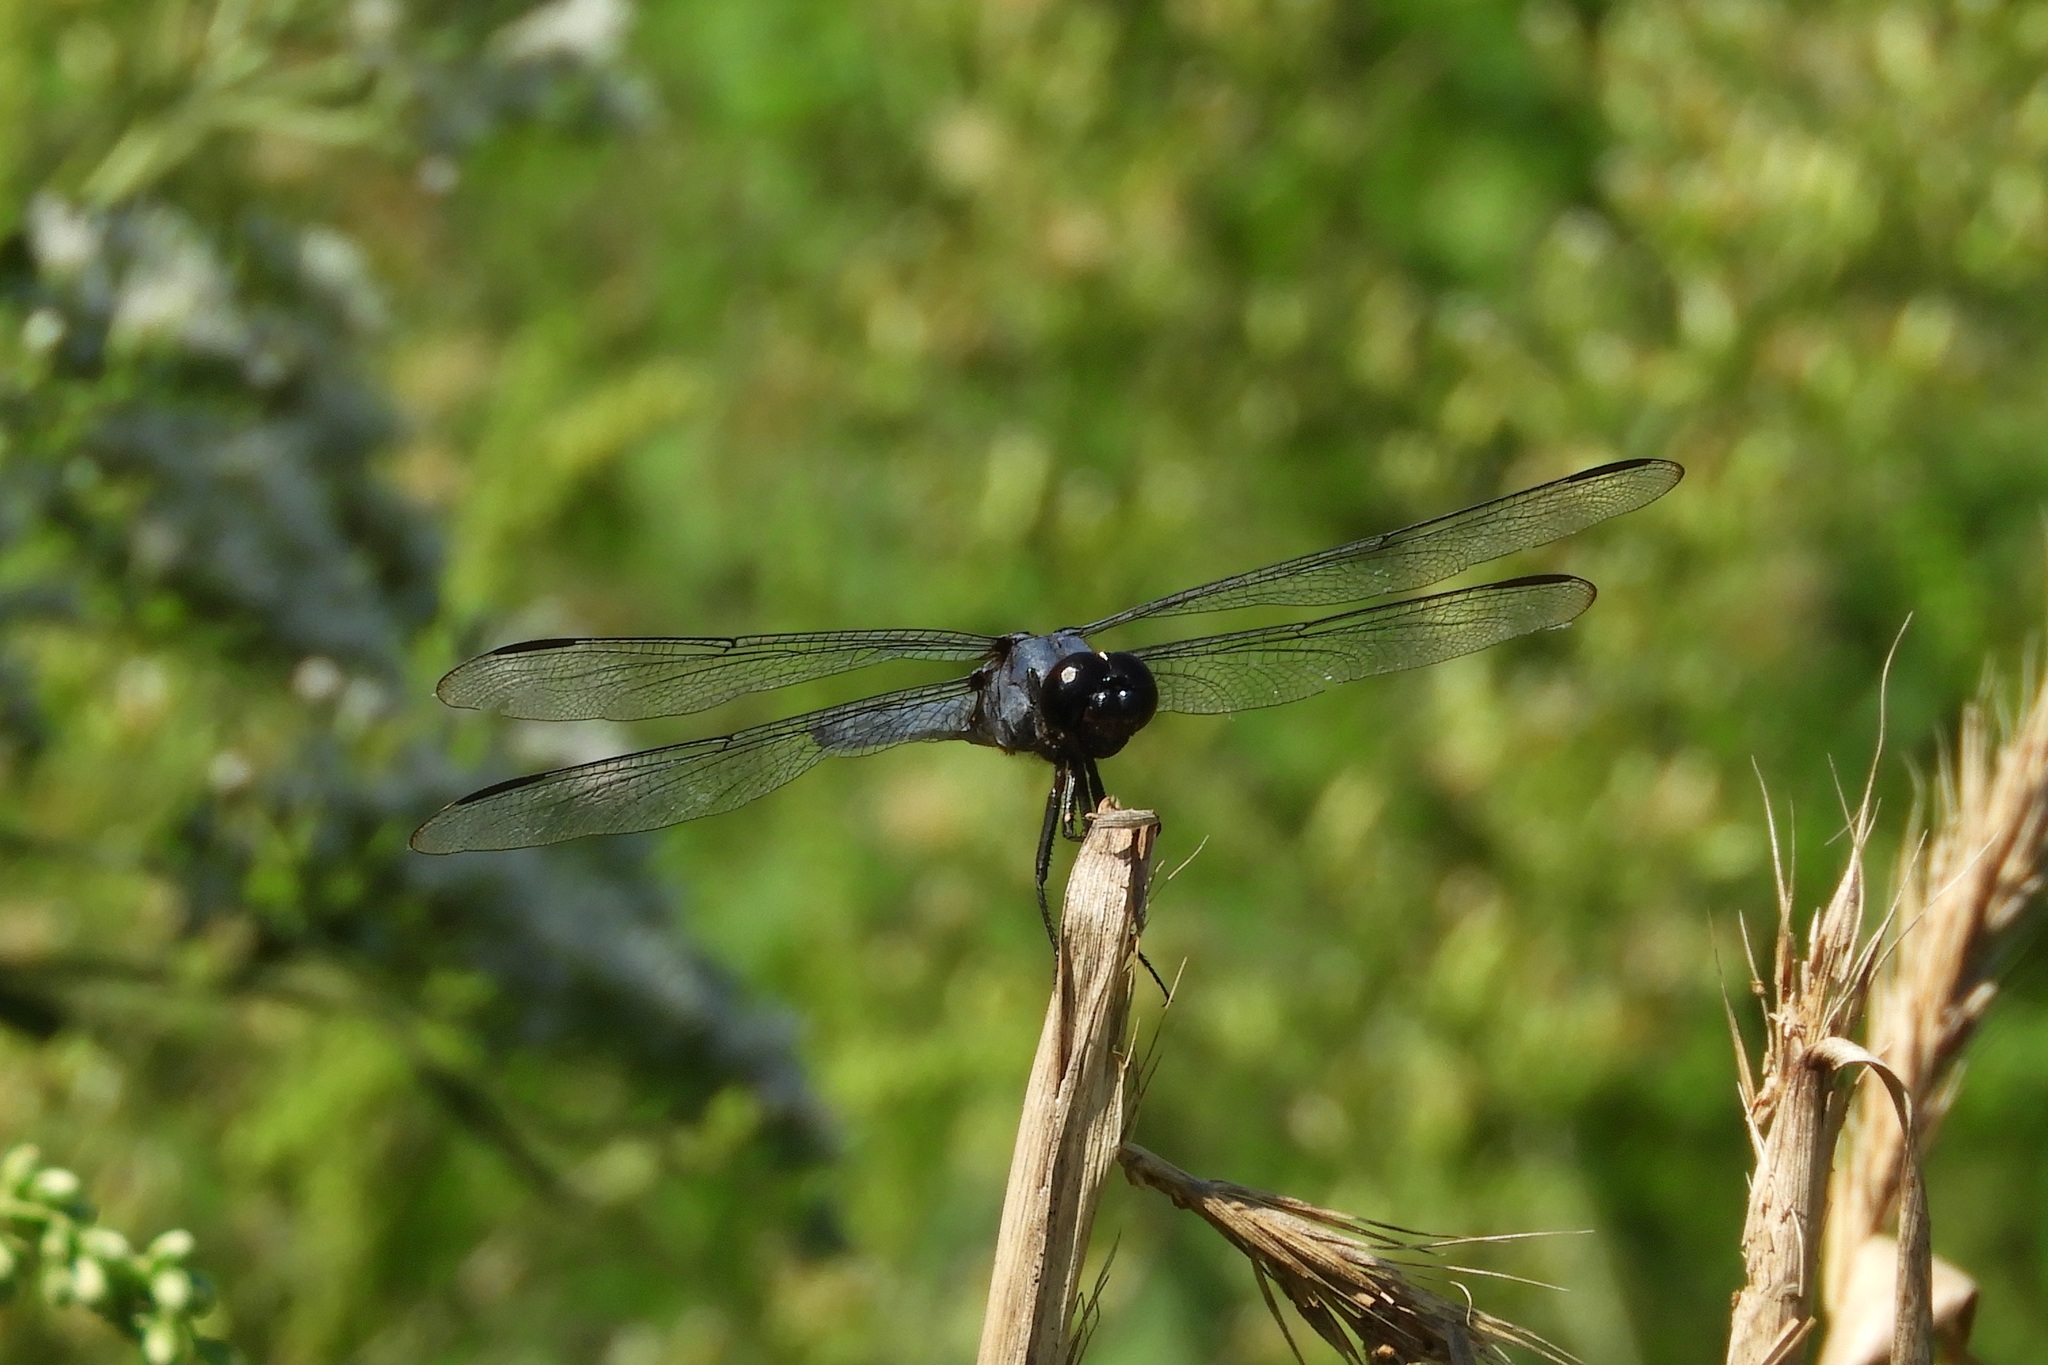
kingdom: Animalia
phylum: Arthropoda
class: Insecta
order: Odonata
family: Libellulidae
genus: Libellula
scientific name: Libellula incesta
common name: Slaty skimmer
